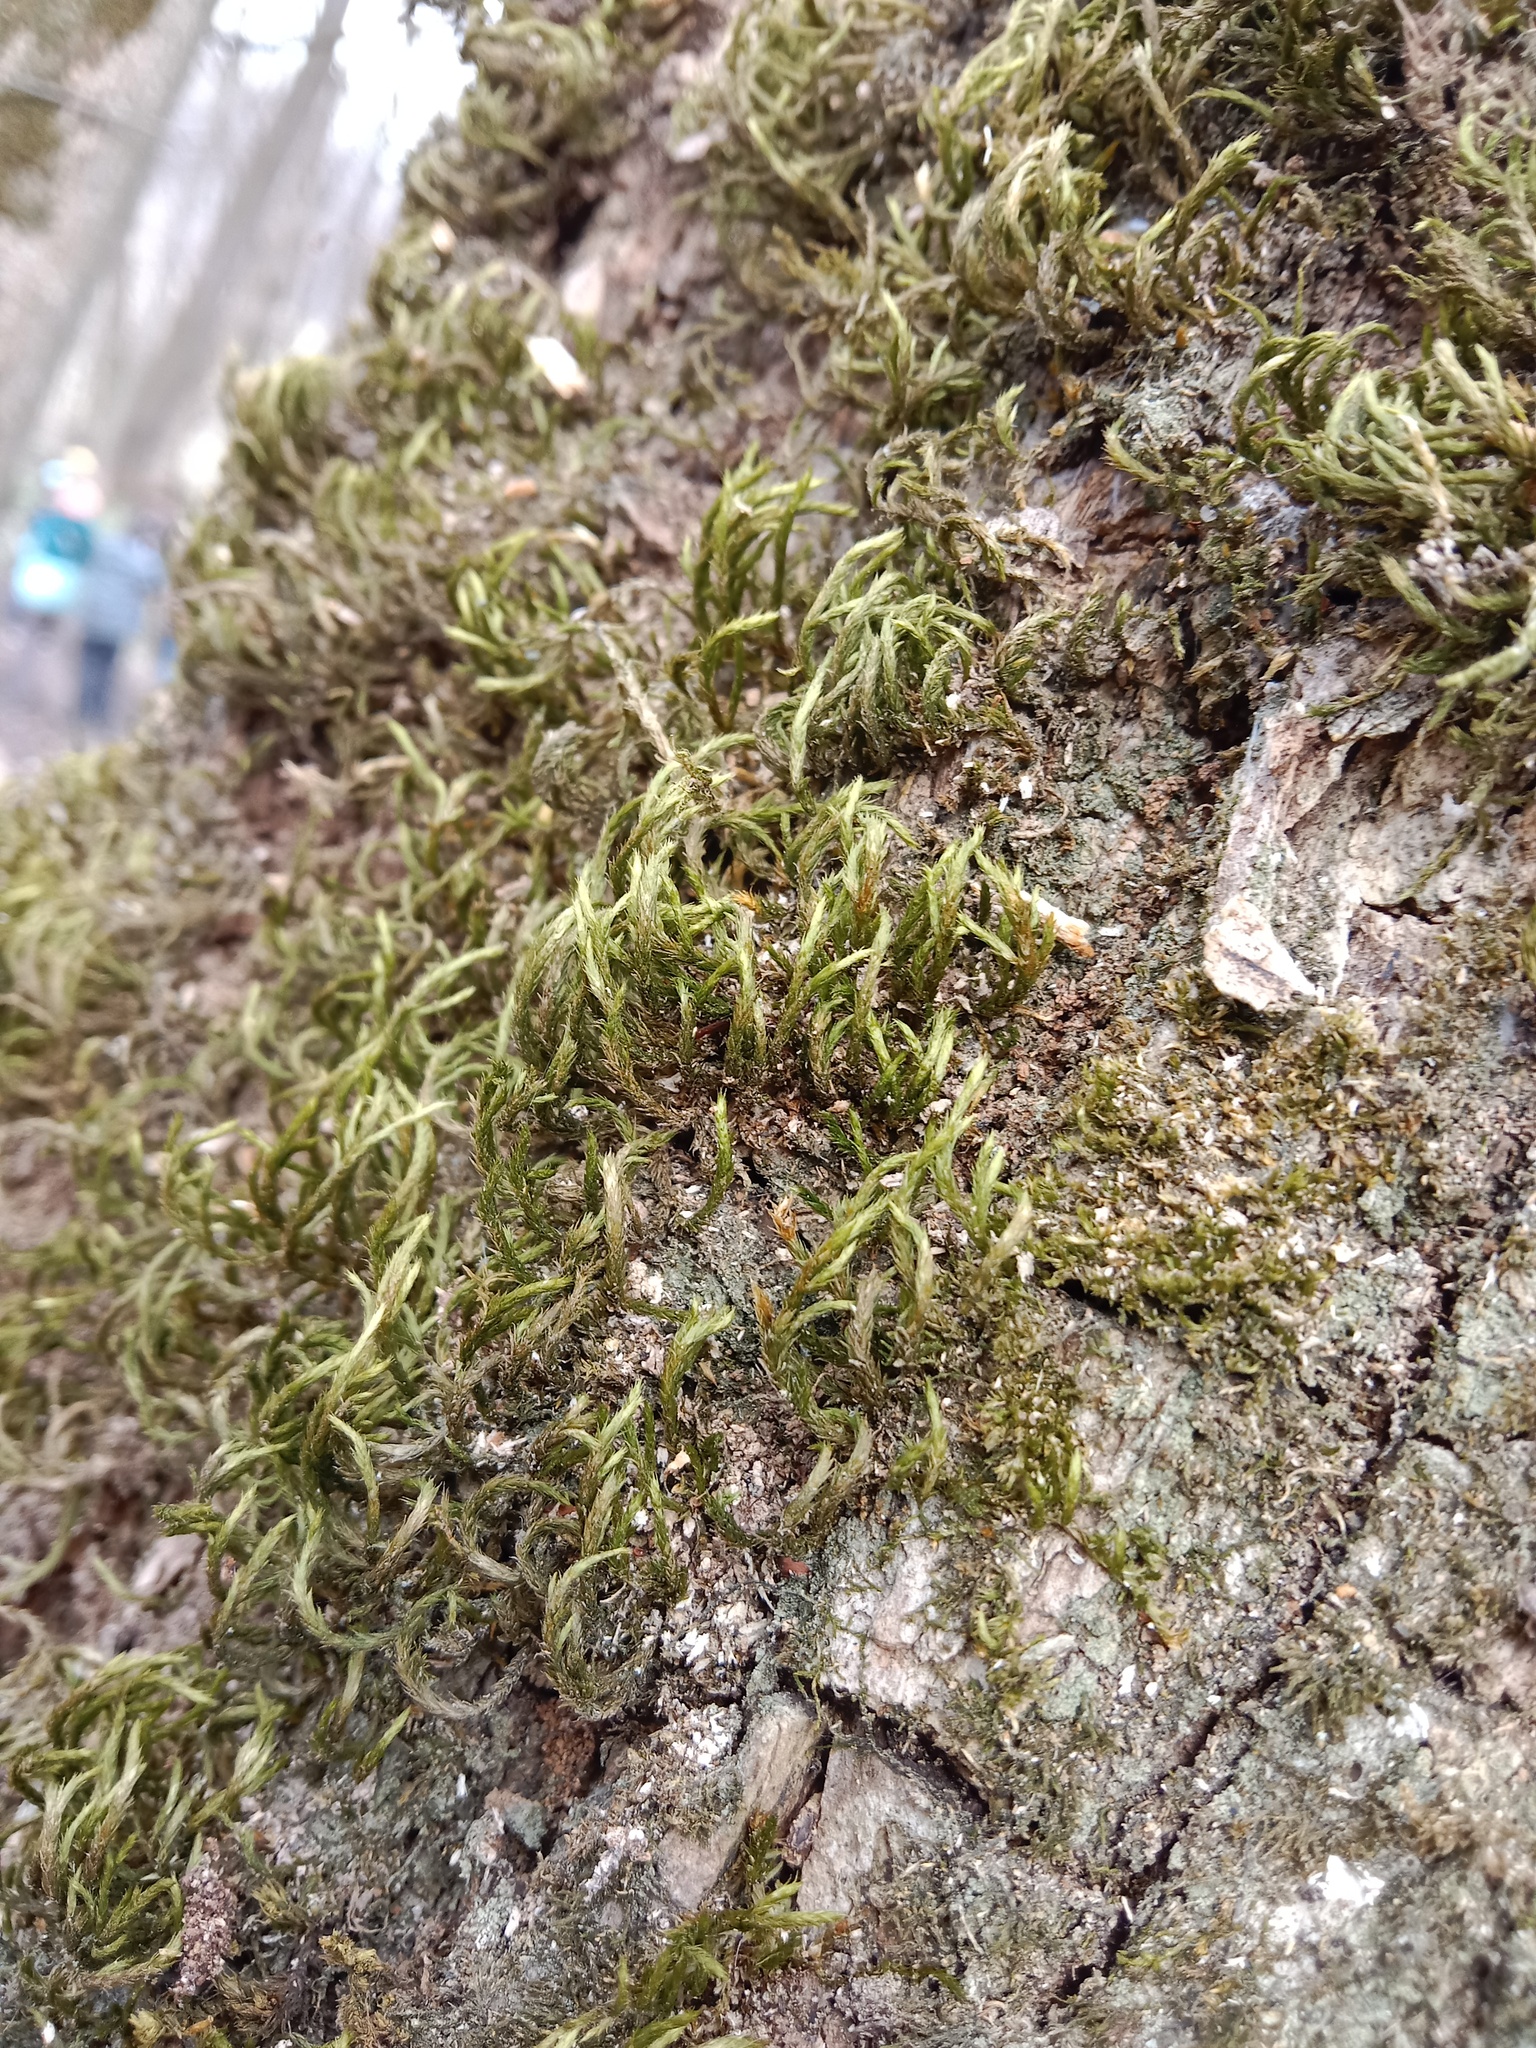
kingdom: Plantae
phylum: Bryophyta
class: Bryopsida
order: Hypnales
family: Leucodontaceae
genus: Leucodon
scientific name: Leucodon sciuroides
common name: Squirrel-tail moss
